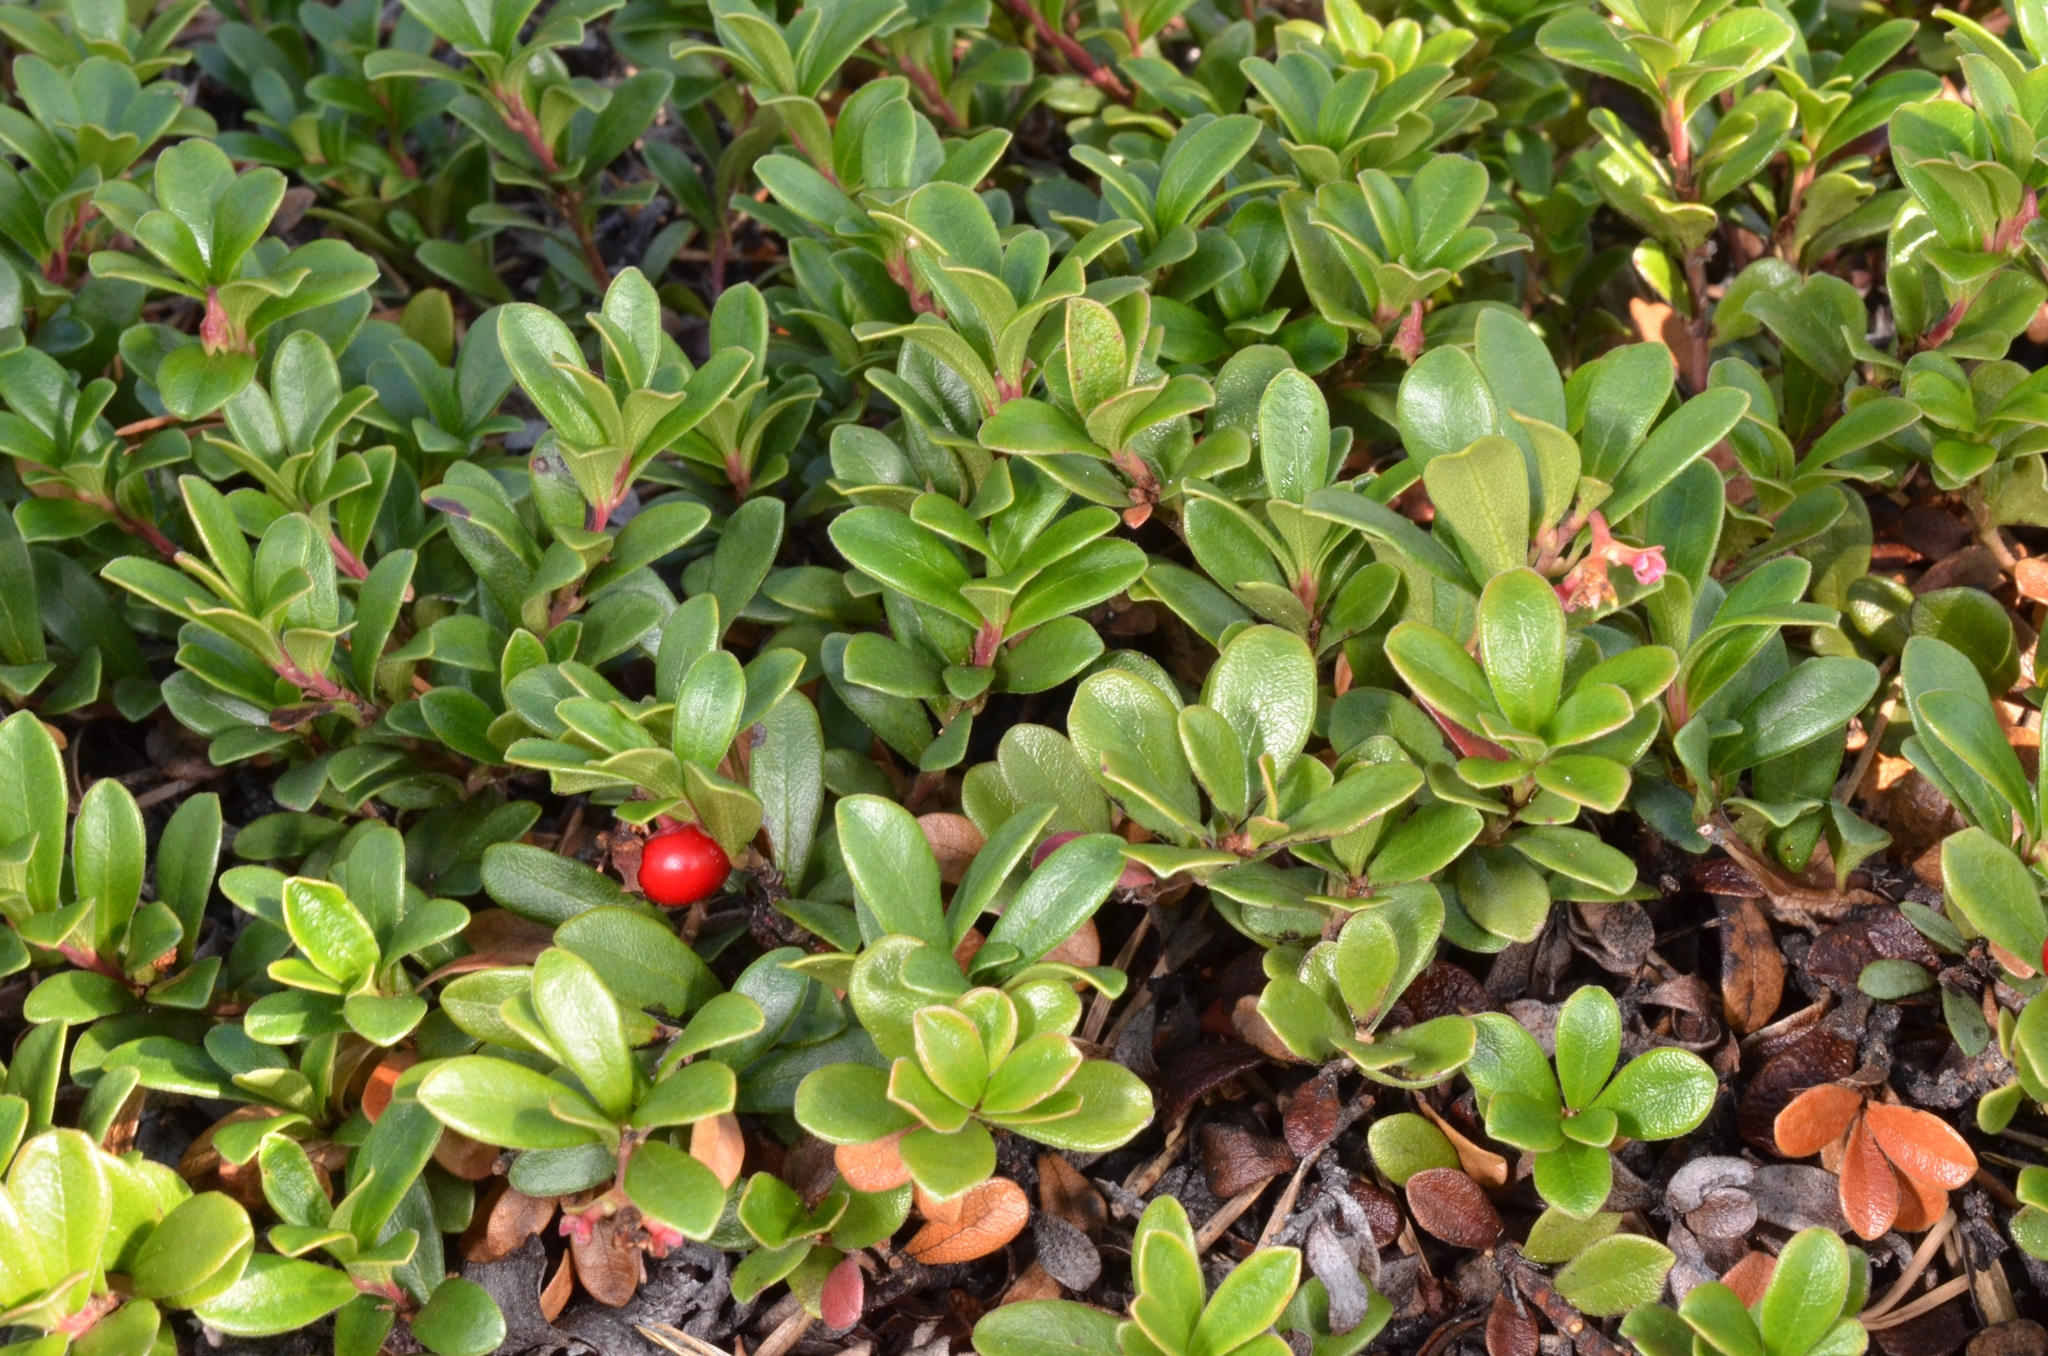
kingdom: Plantae
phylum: Tracheophyta
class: Magnoliopsida
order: Ericales
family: Ericaceae
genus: Arctostaphylos
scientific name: Arctostaphylos uva-ursi
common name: Bearberry
